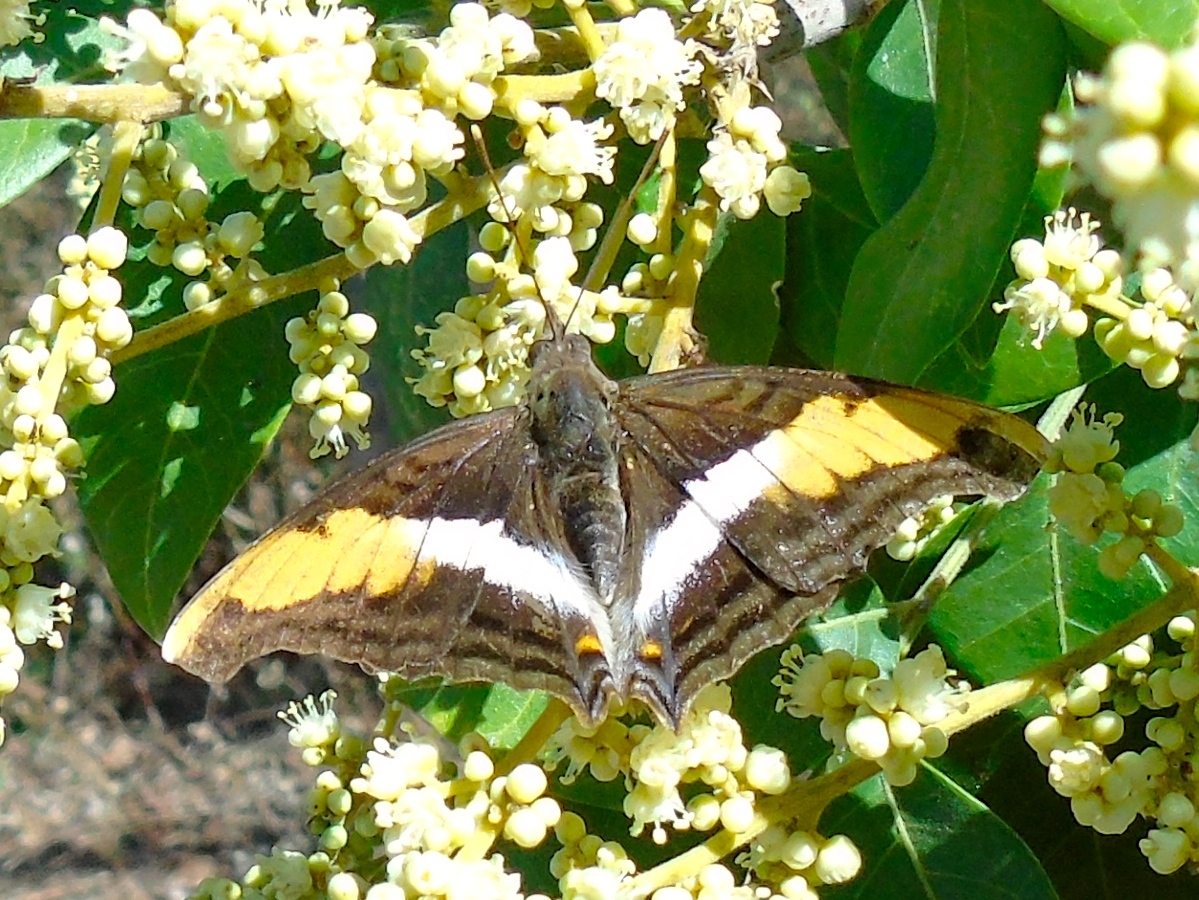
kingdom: Animalia
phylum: Arthropoda
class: Insecta
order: Lepidoptera
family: Nymphalidae
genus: Doxocopa
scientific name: Doxocopa laure
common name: Silver emperor
